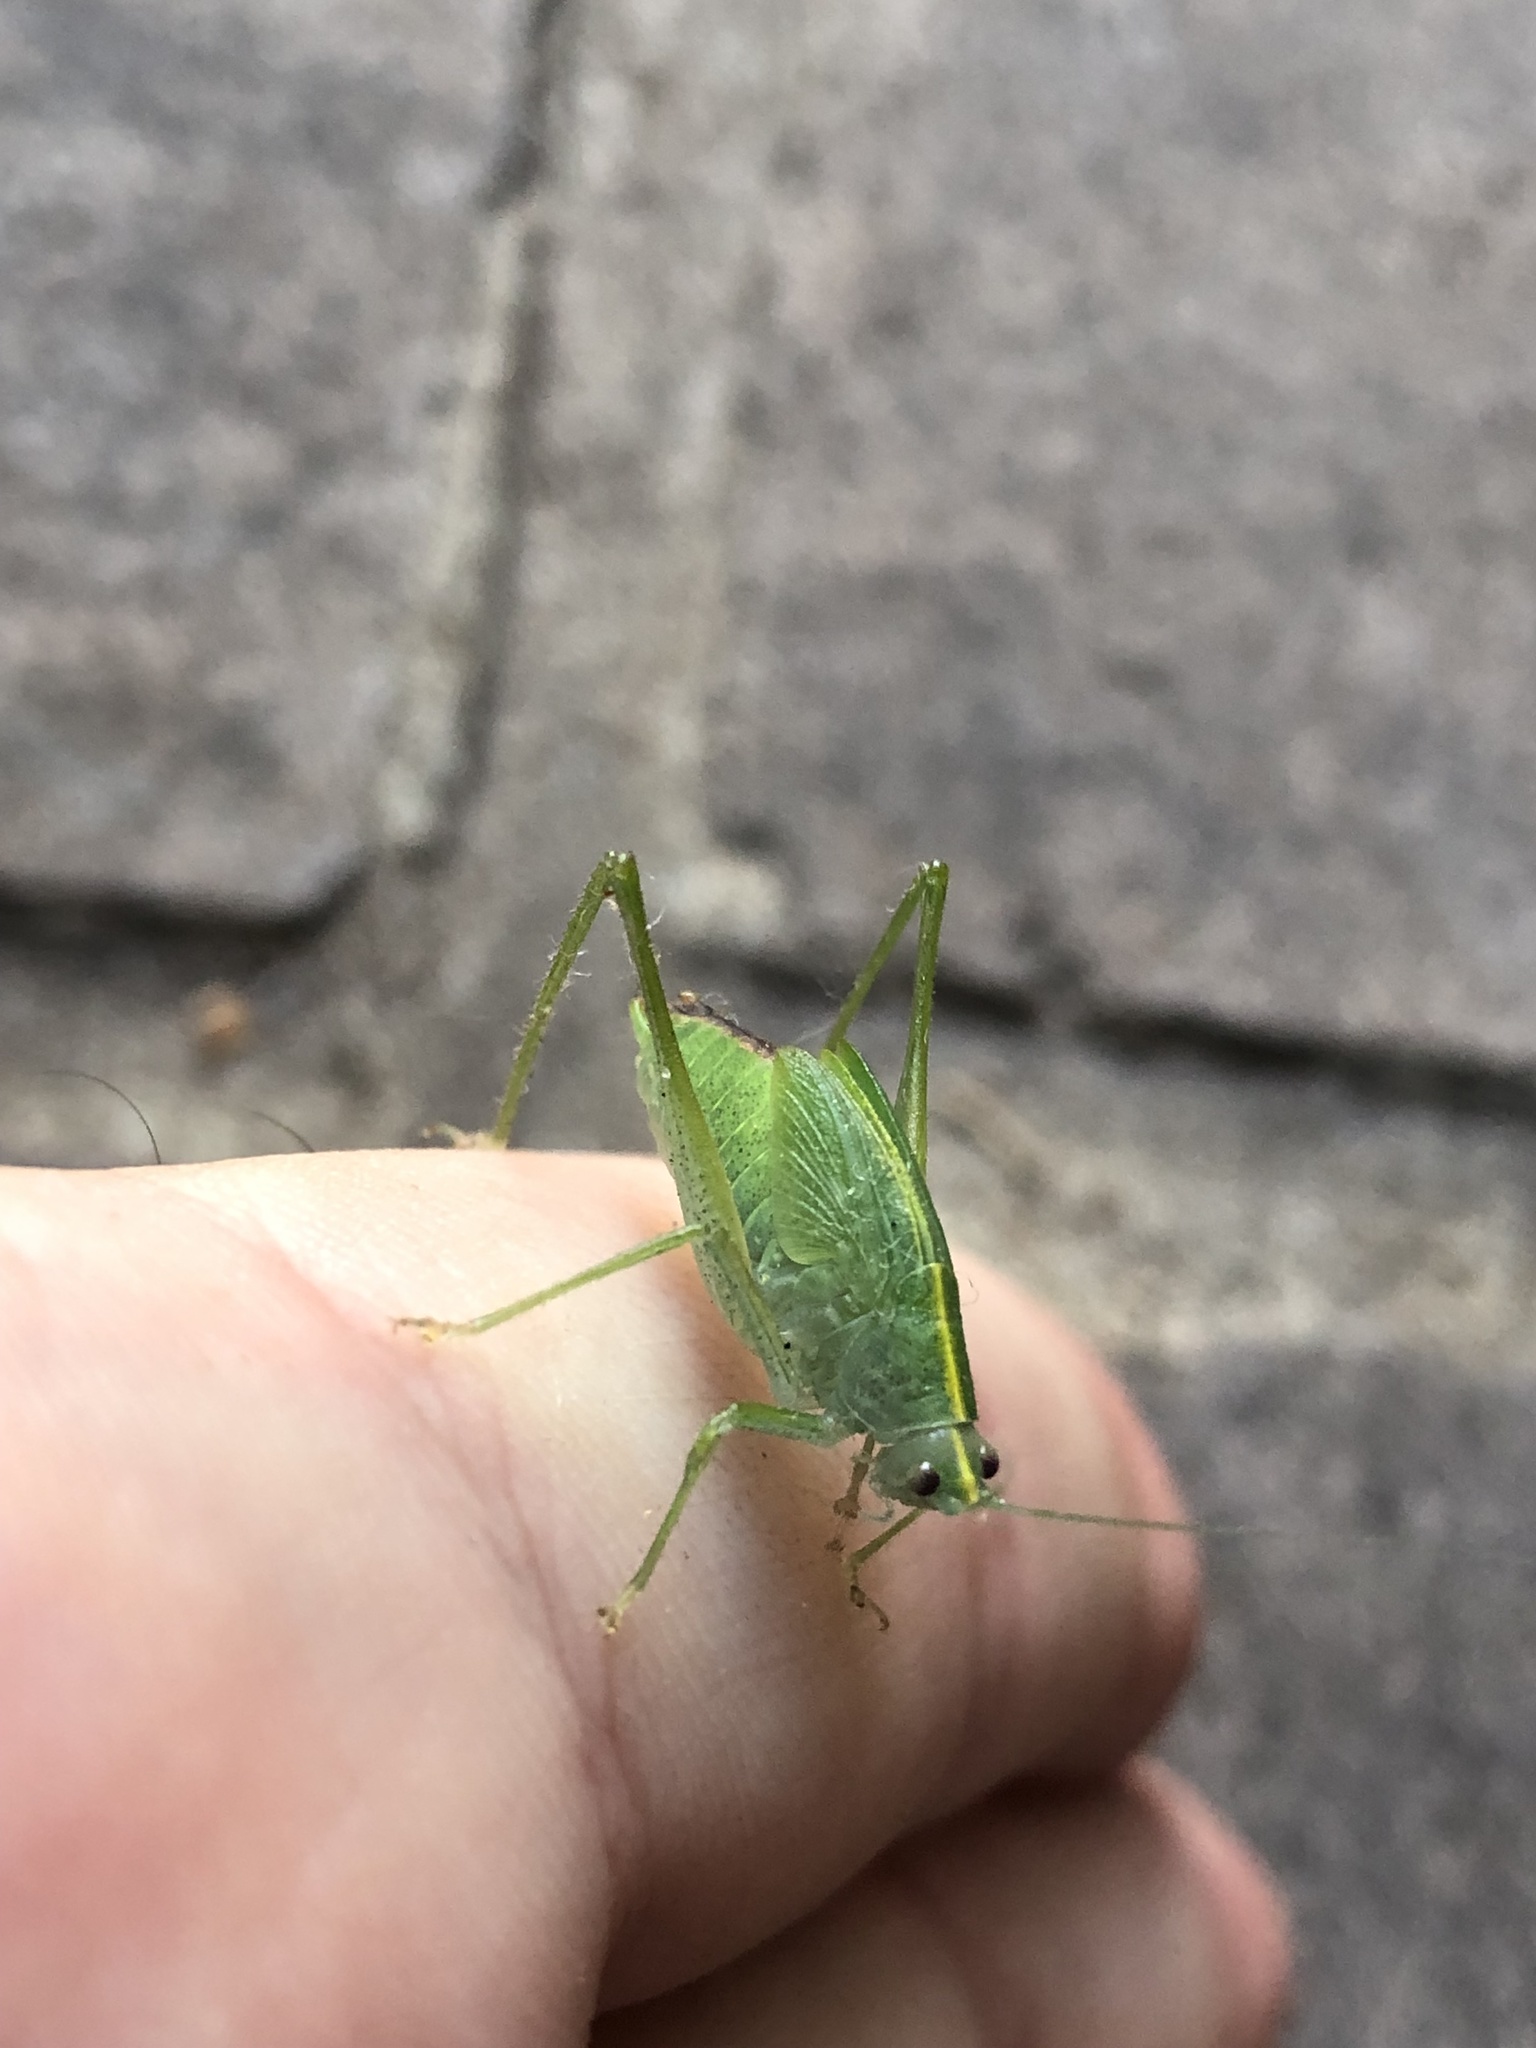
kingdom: Animalia
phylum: Arthropoda
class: Insecta
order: Orthoptera
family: Tettigoniidae
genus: Grammadera
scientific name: Grammadera clara
